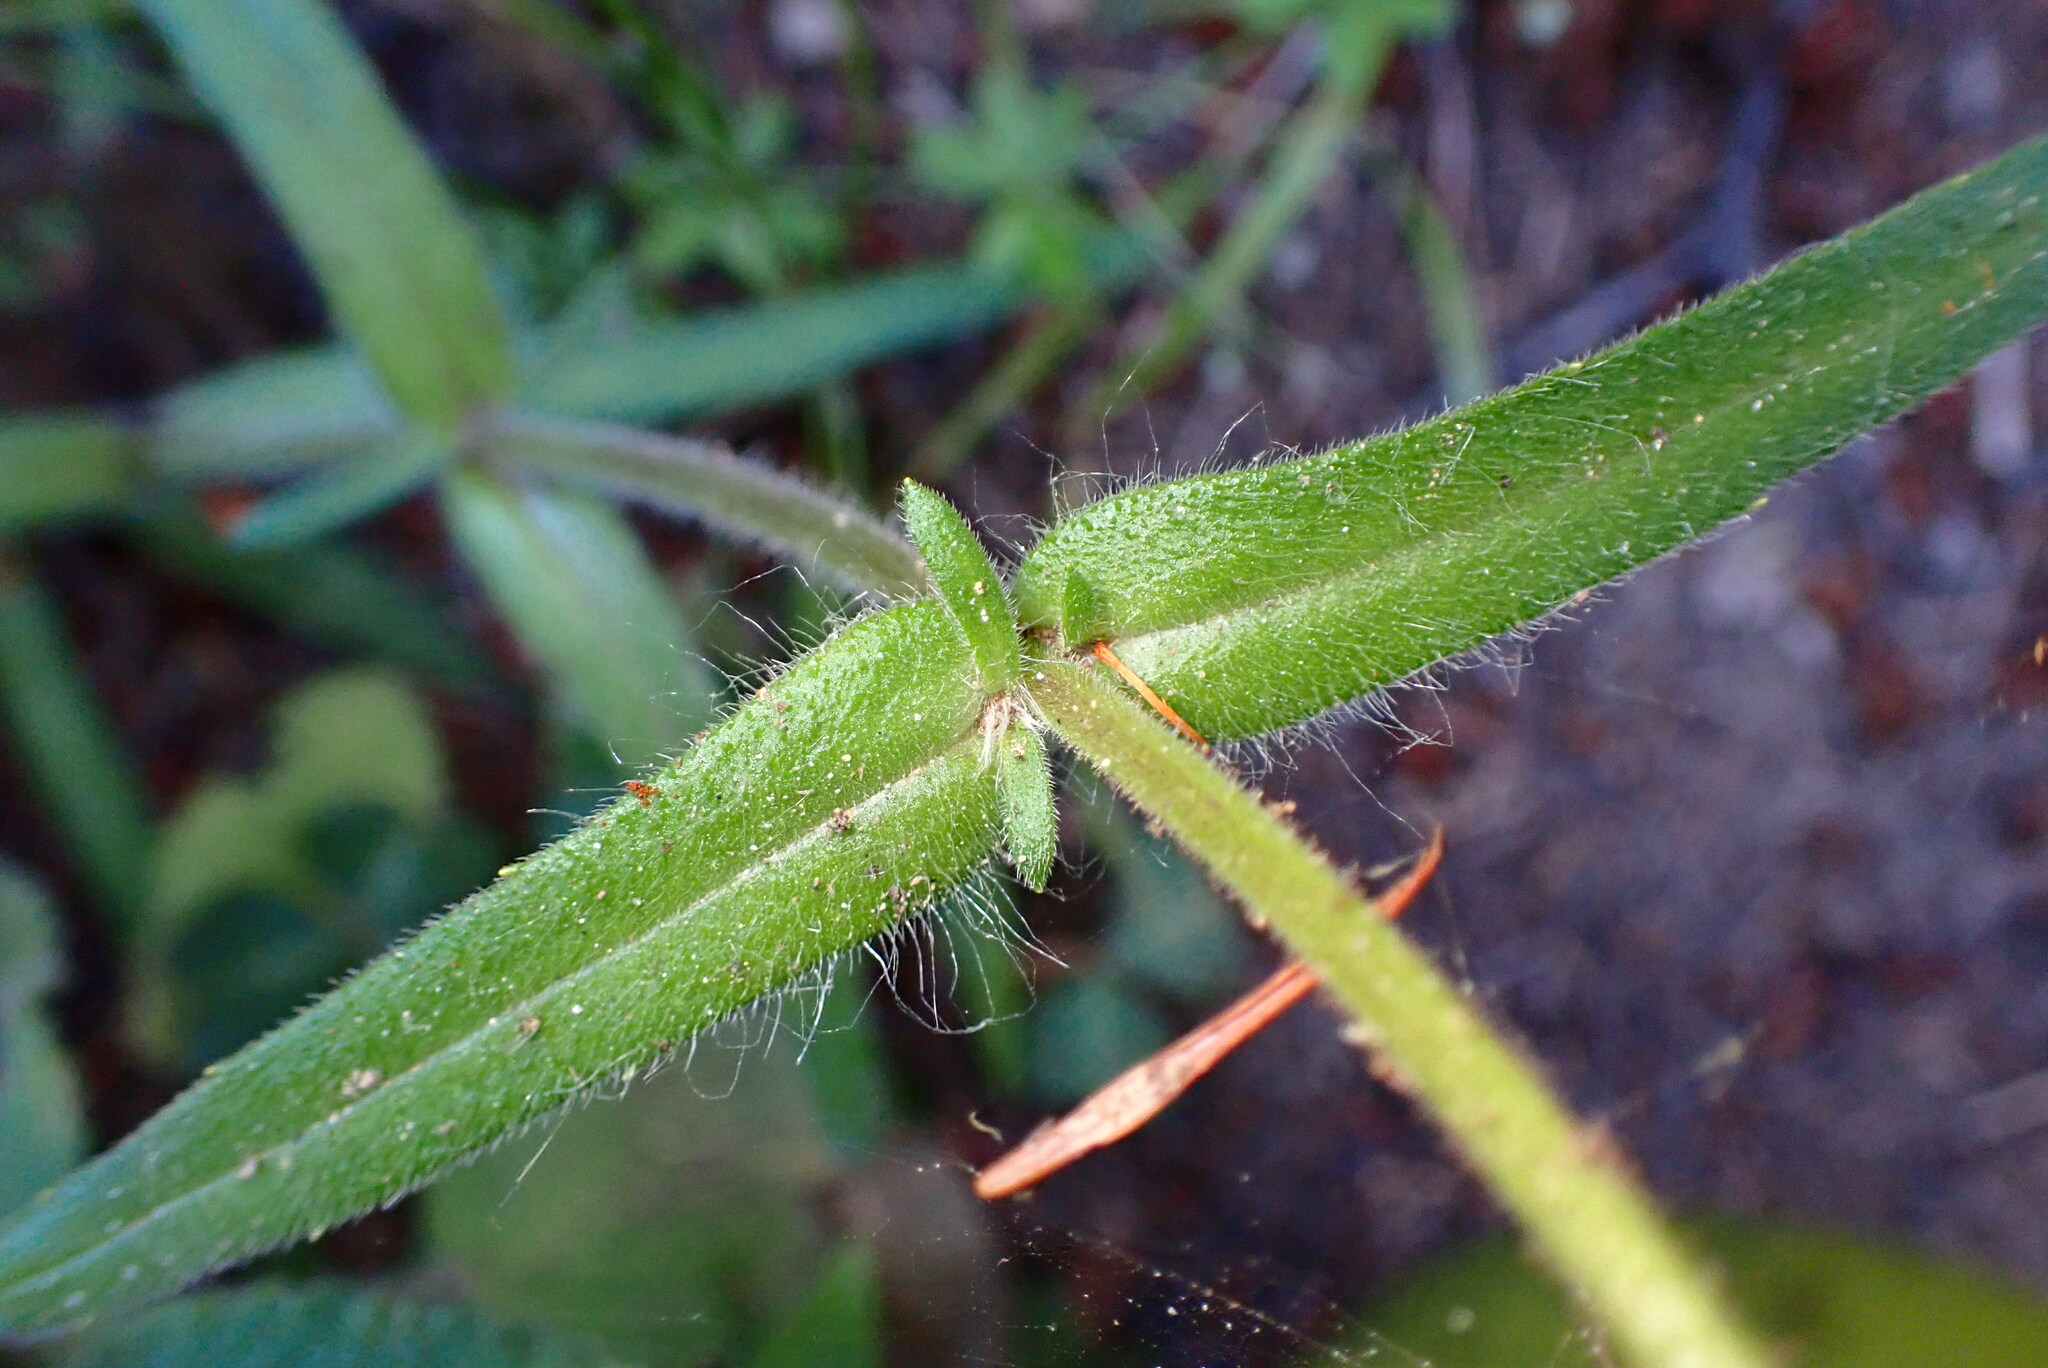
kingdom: Plantae
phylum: Tracheophyta
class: Magnoliopsida
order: Asterales
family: Asteraceae
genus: Anisocarpus
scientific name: Anisocarpus madioides
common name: Woodland madia
